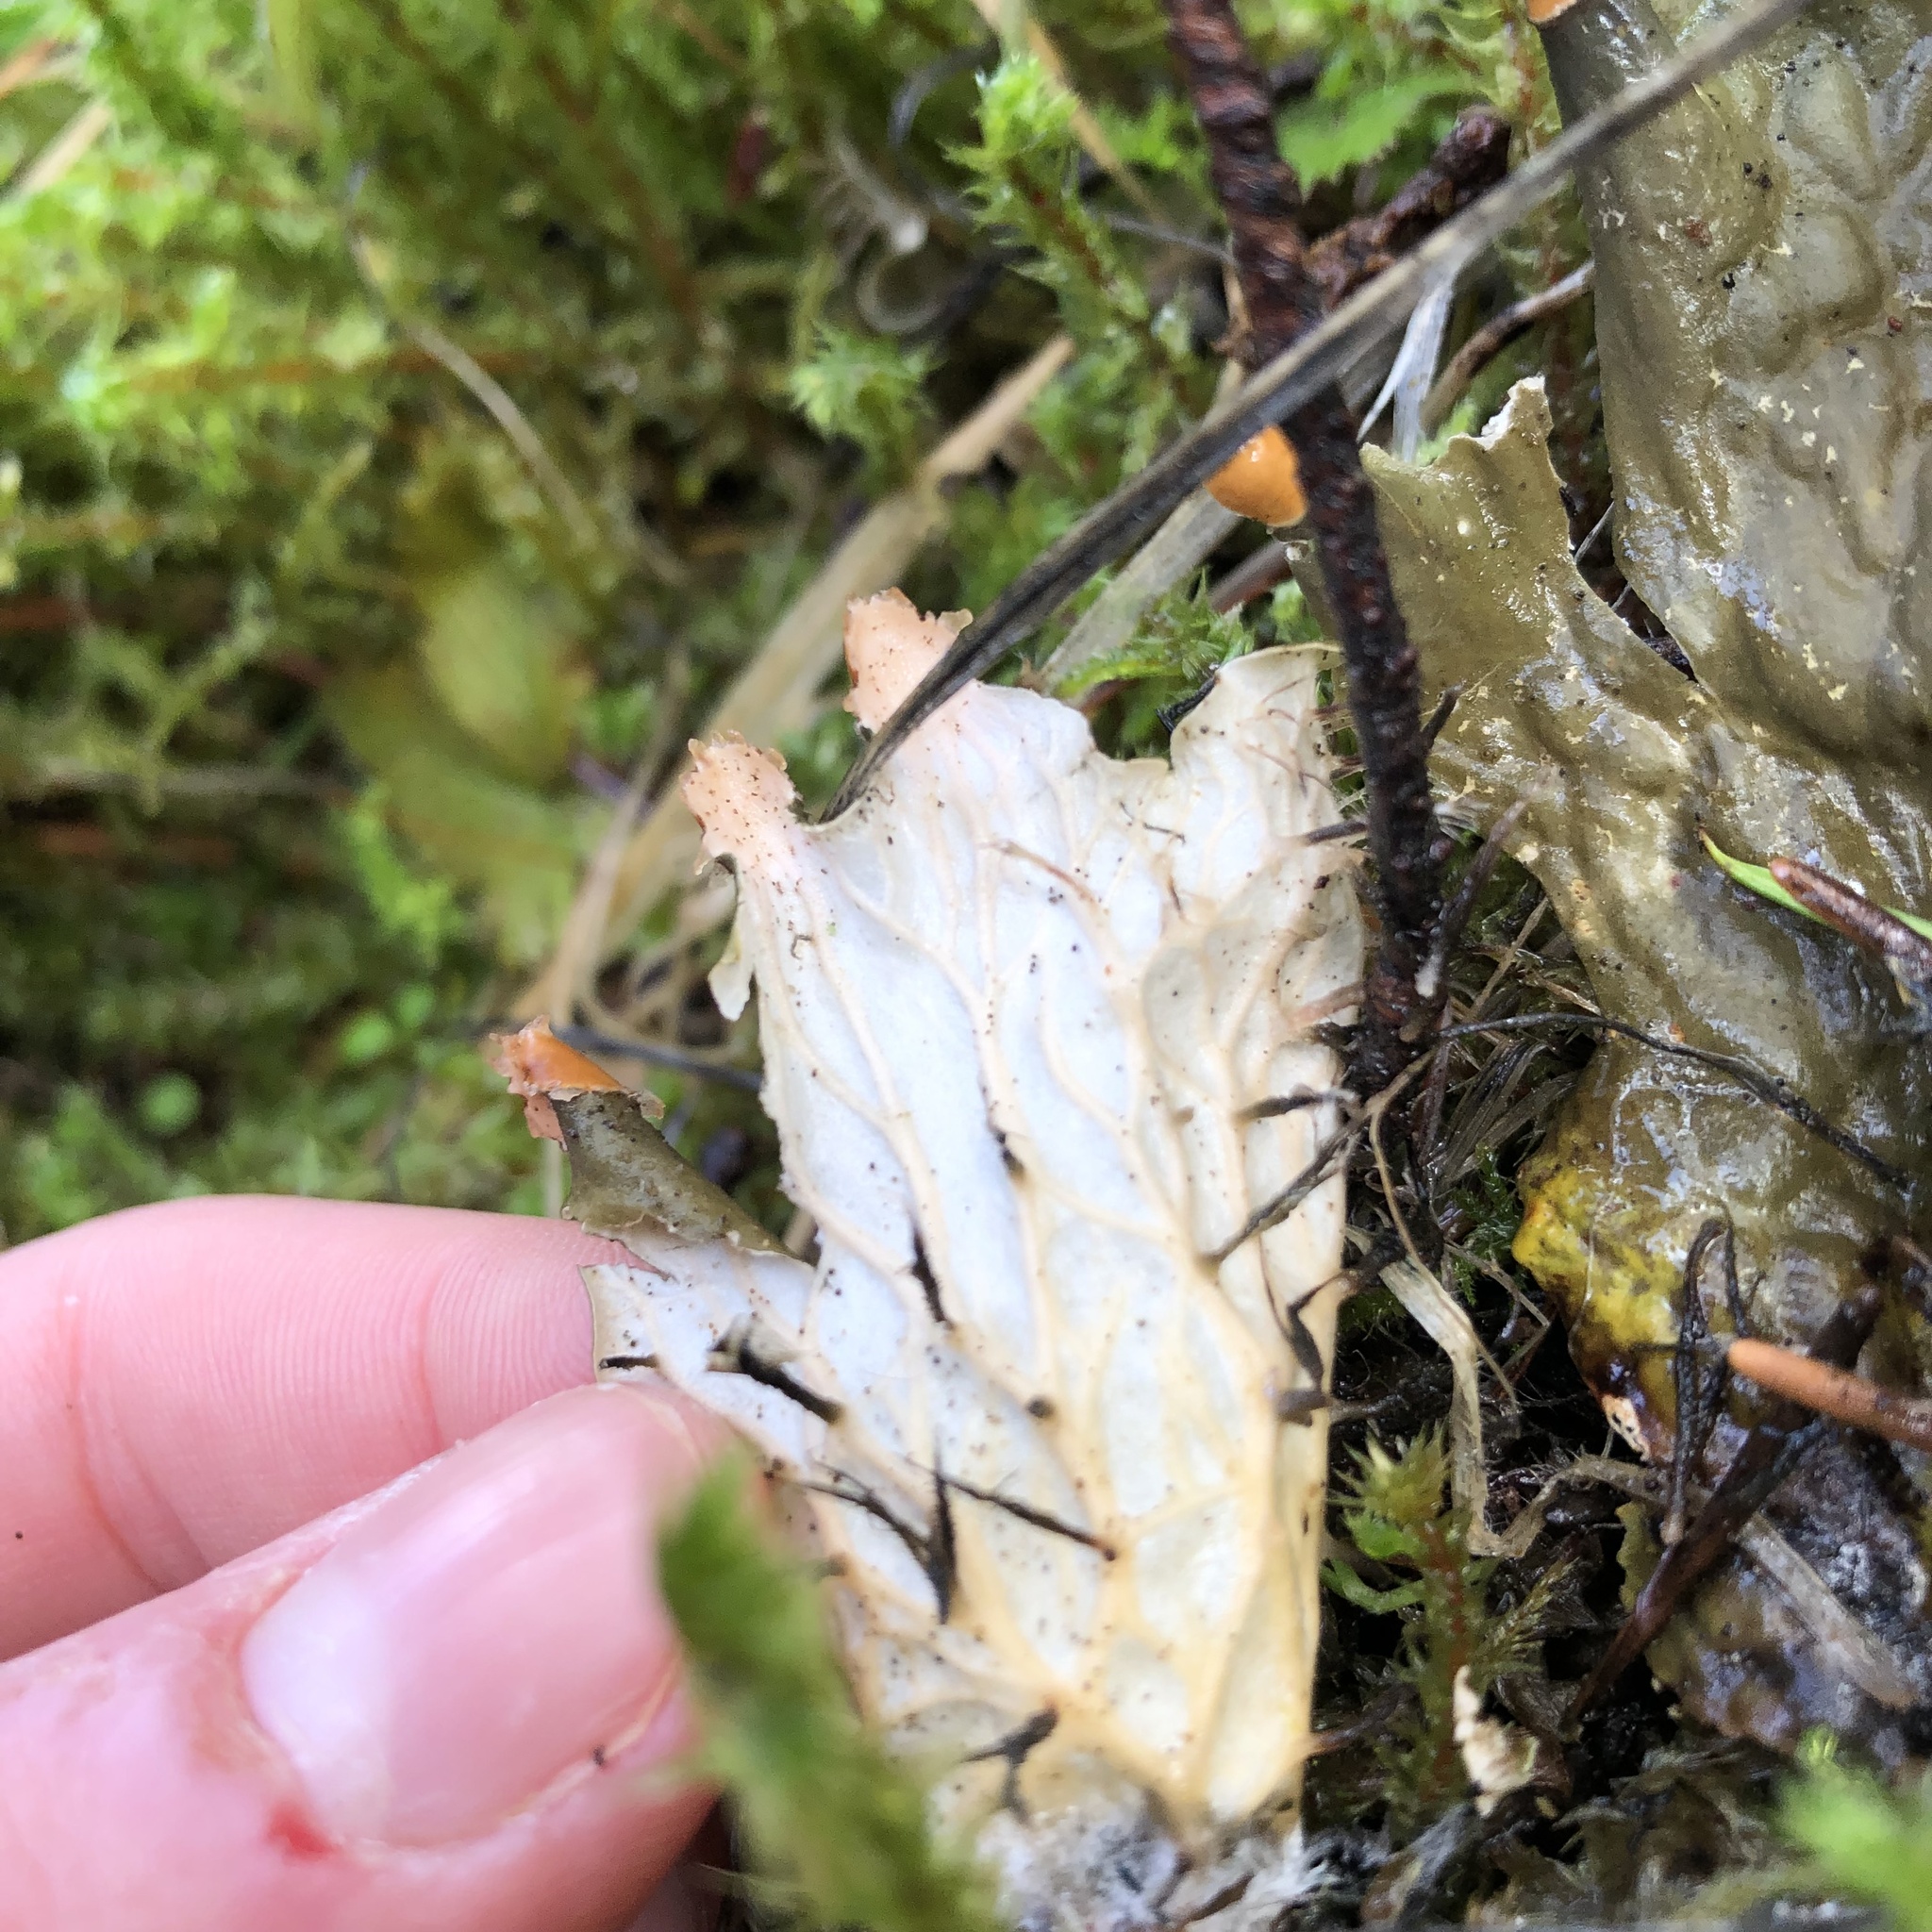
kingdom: Fungi
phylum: Ascomycota
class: Lecanoromycetes
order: Peltigerales
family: Peltigeraceae
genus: Peltigera
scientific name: Peltigera membranacea
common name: Membranous pelt lichen
